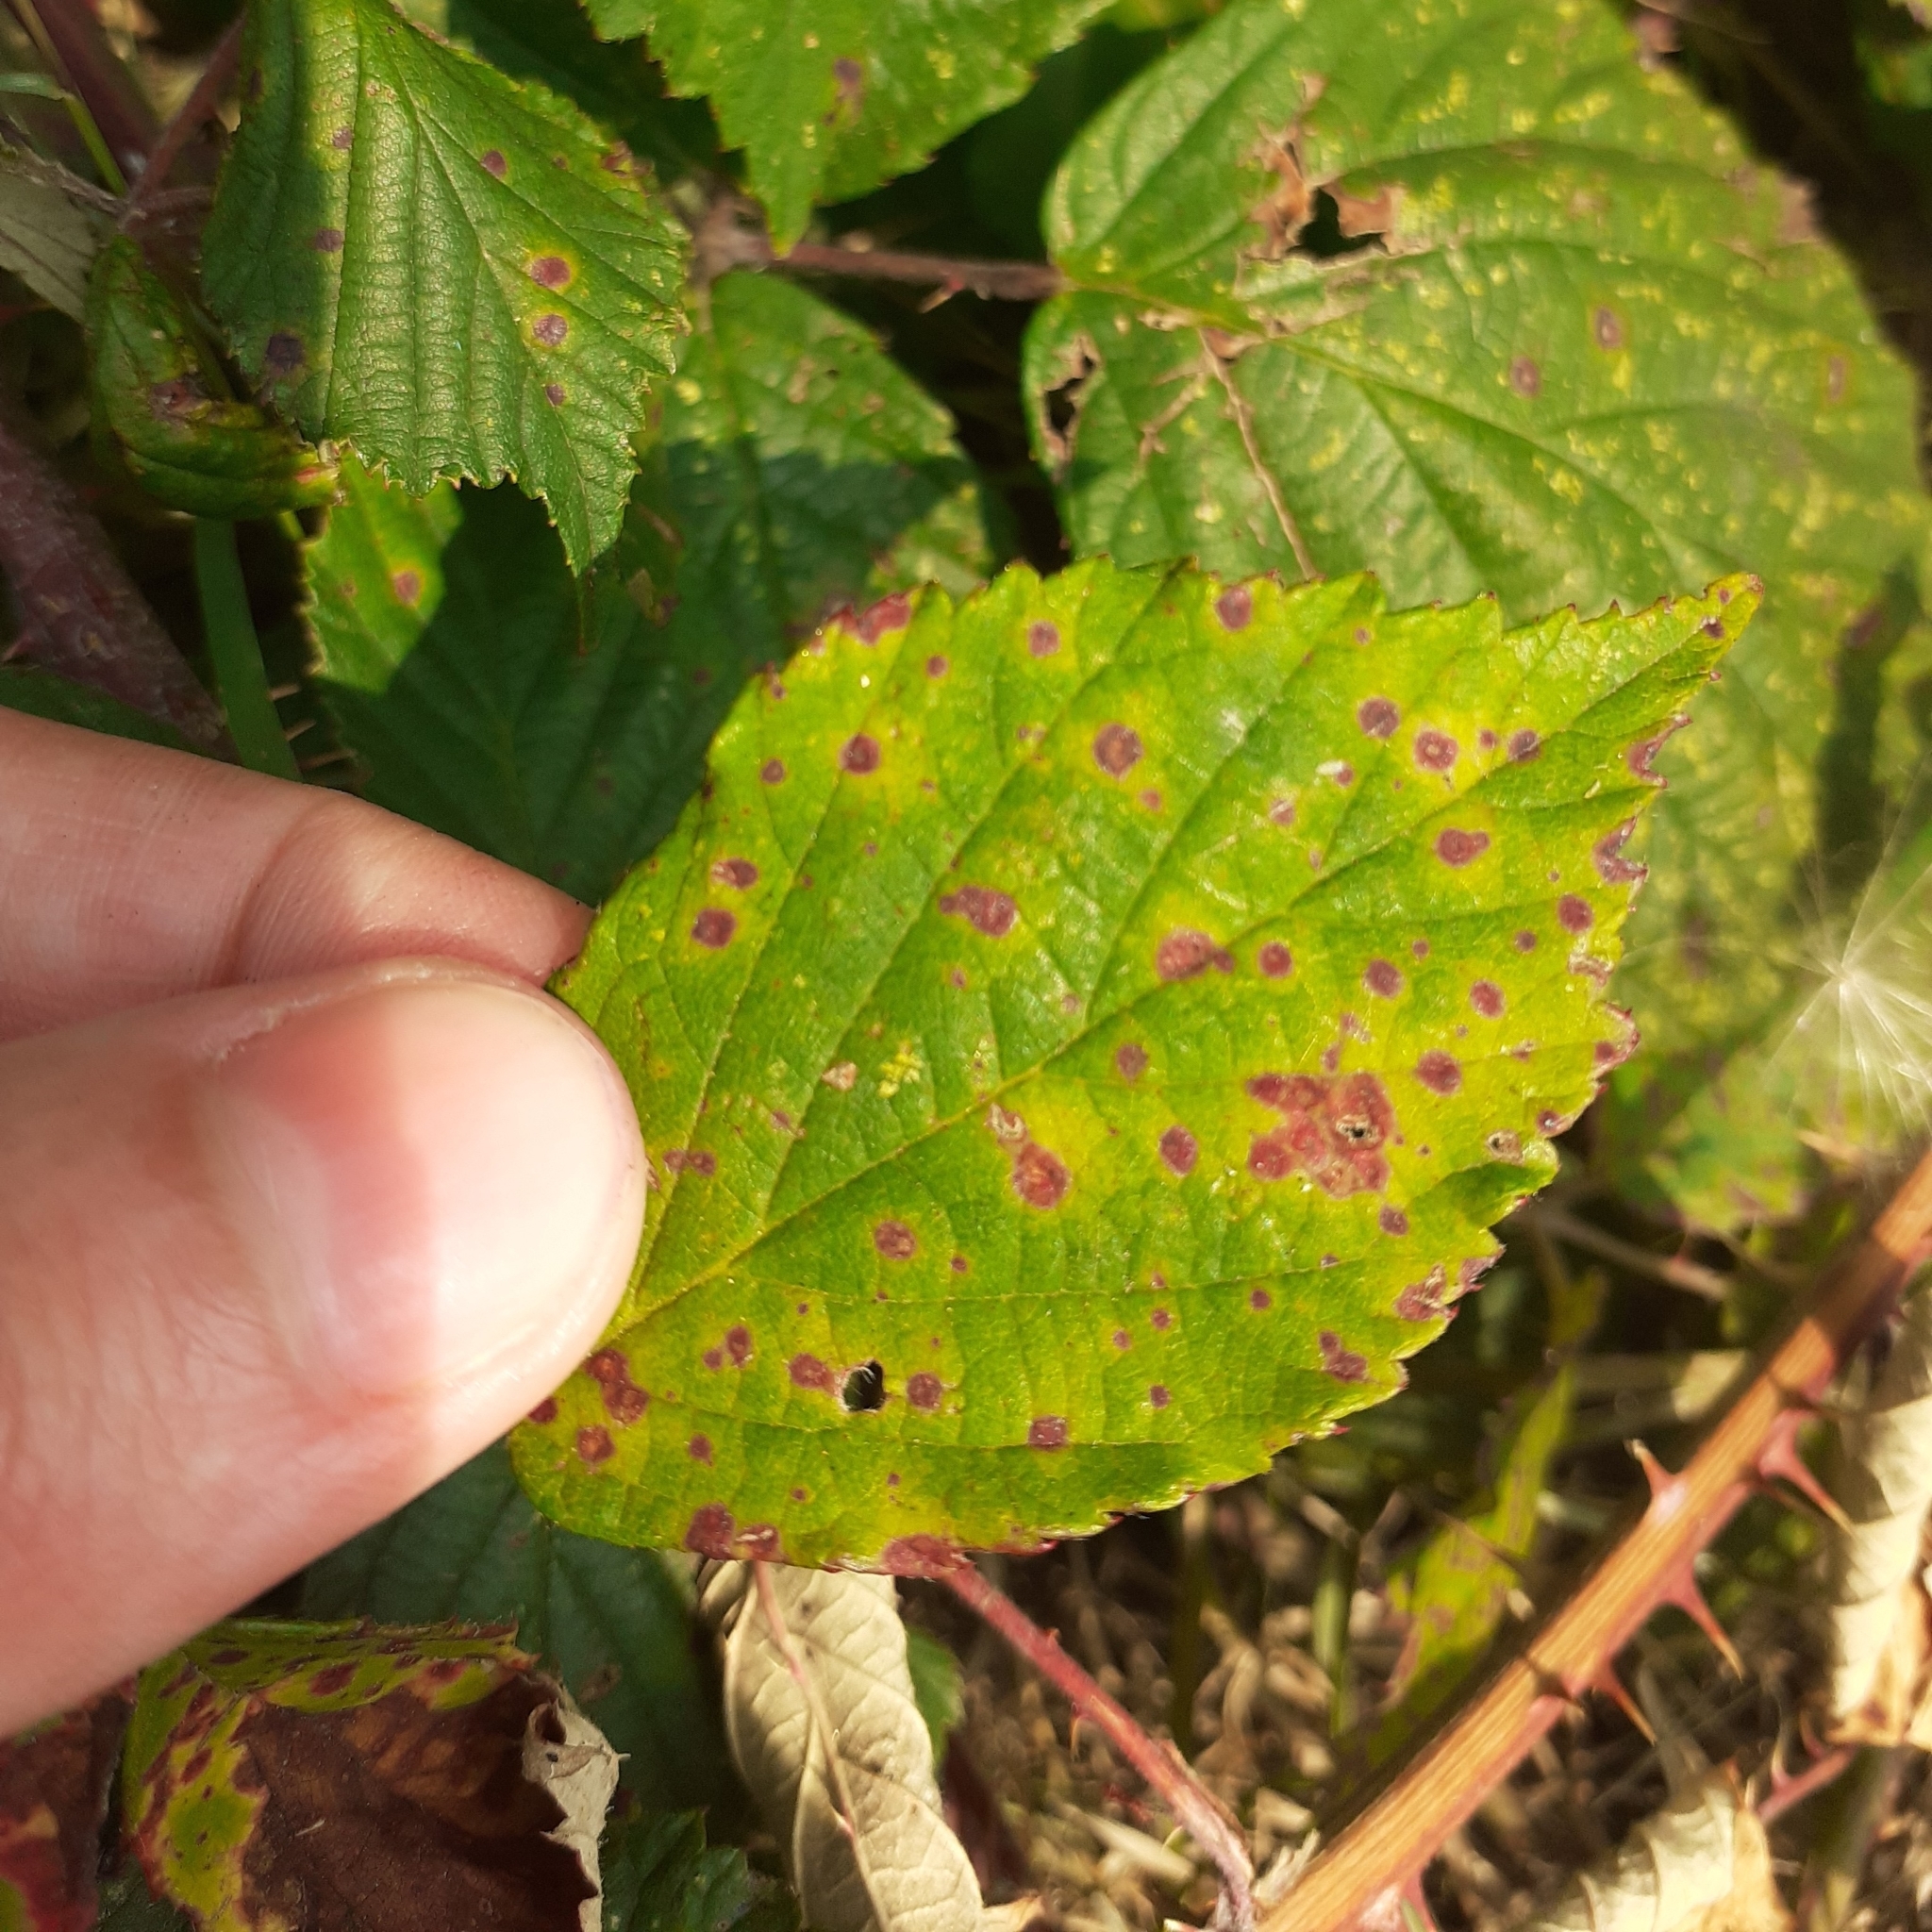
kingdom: Fungi
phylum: Basidiomycota
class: Pucciniomycetes
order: Pucciniales
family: Phragmidiaceae
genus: Phragmidium
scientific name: Phragmidium violaceum
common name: Violet bramble rust
